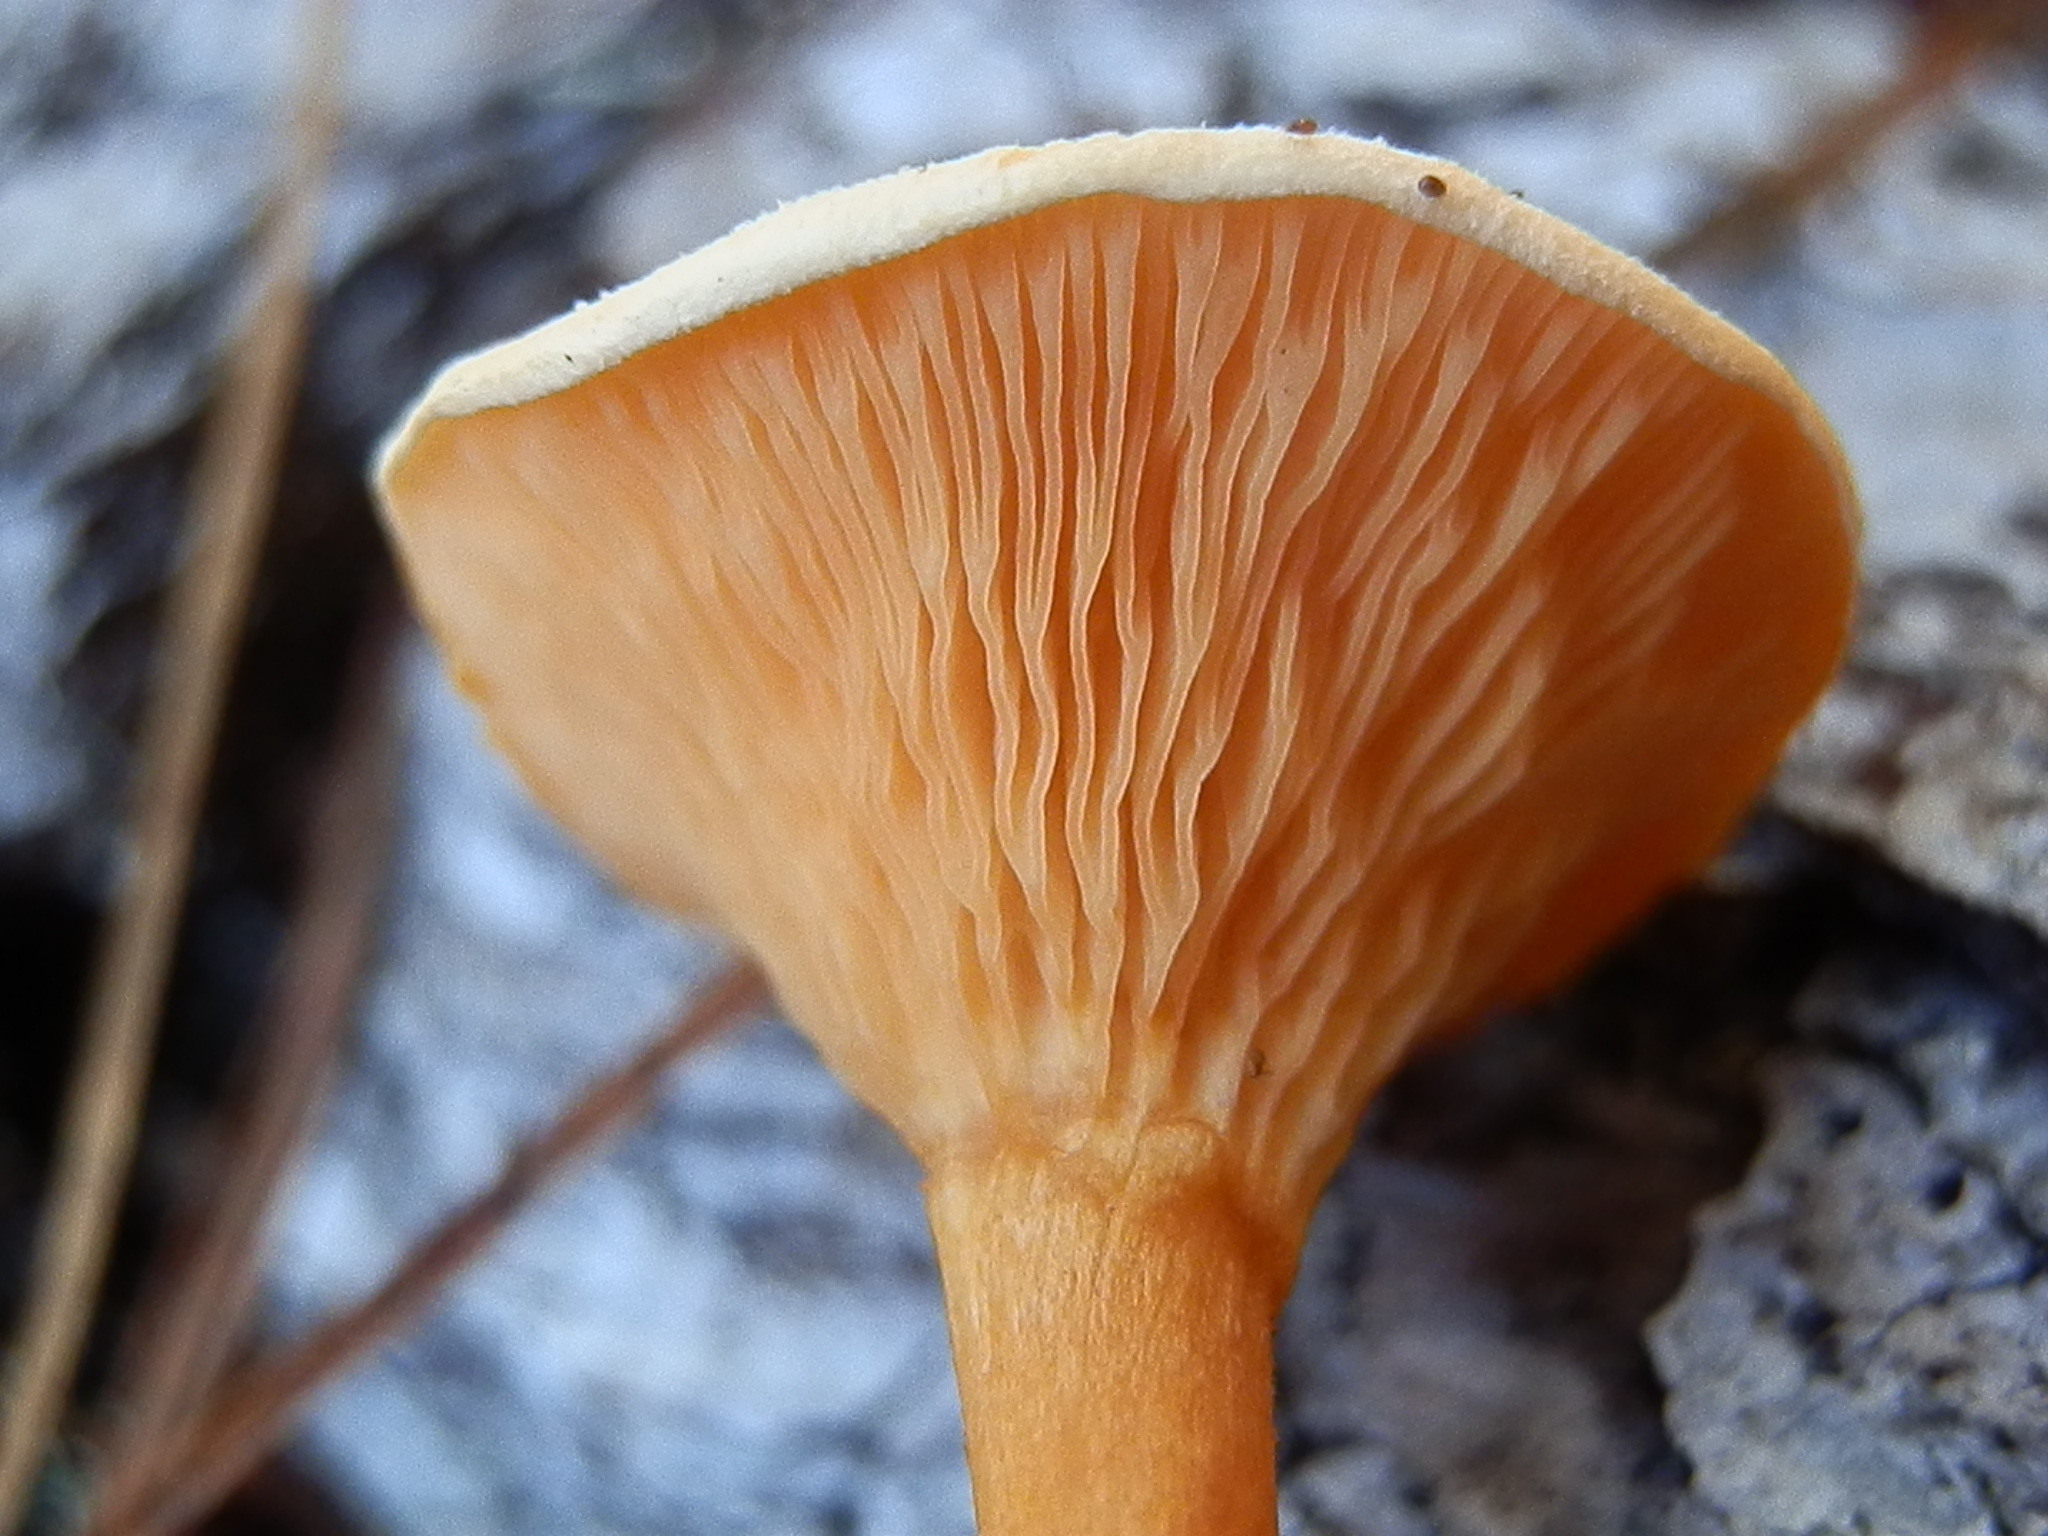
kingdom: Fungi
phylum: Basidiomycota
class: Agaricomycetes
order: Boletales
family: Hygrophoropsidaceae
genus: Hygrophoropsis
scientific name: Hygrophoropsis aurantiaca
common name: False chanterelle
